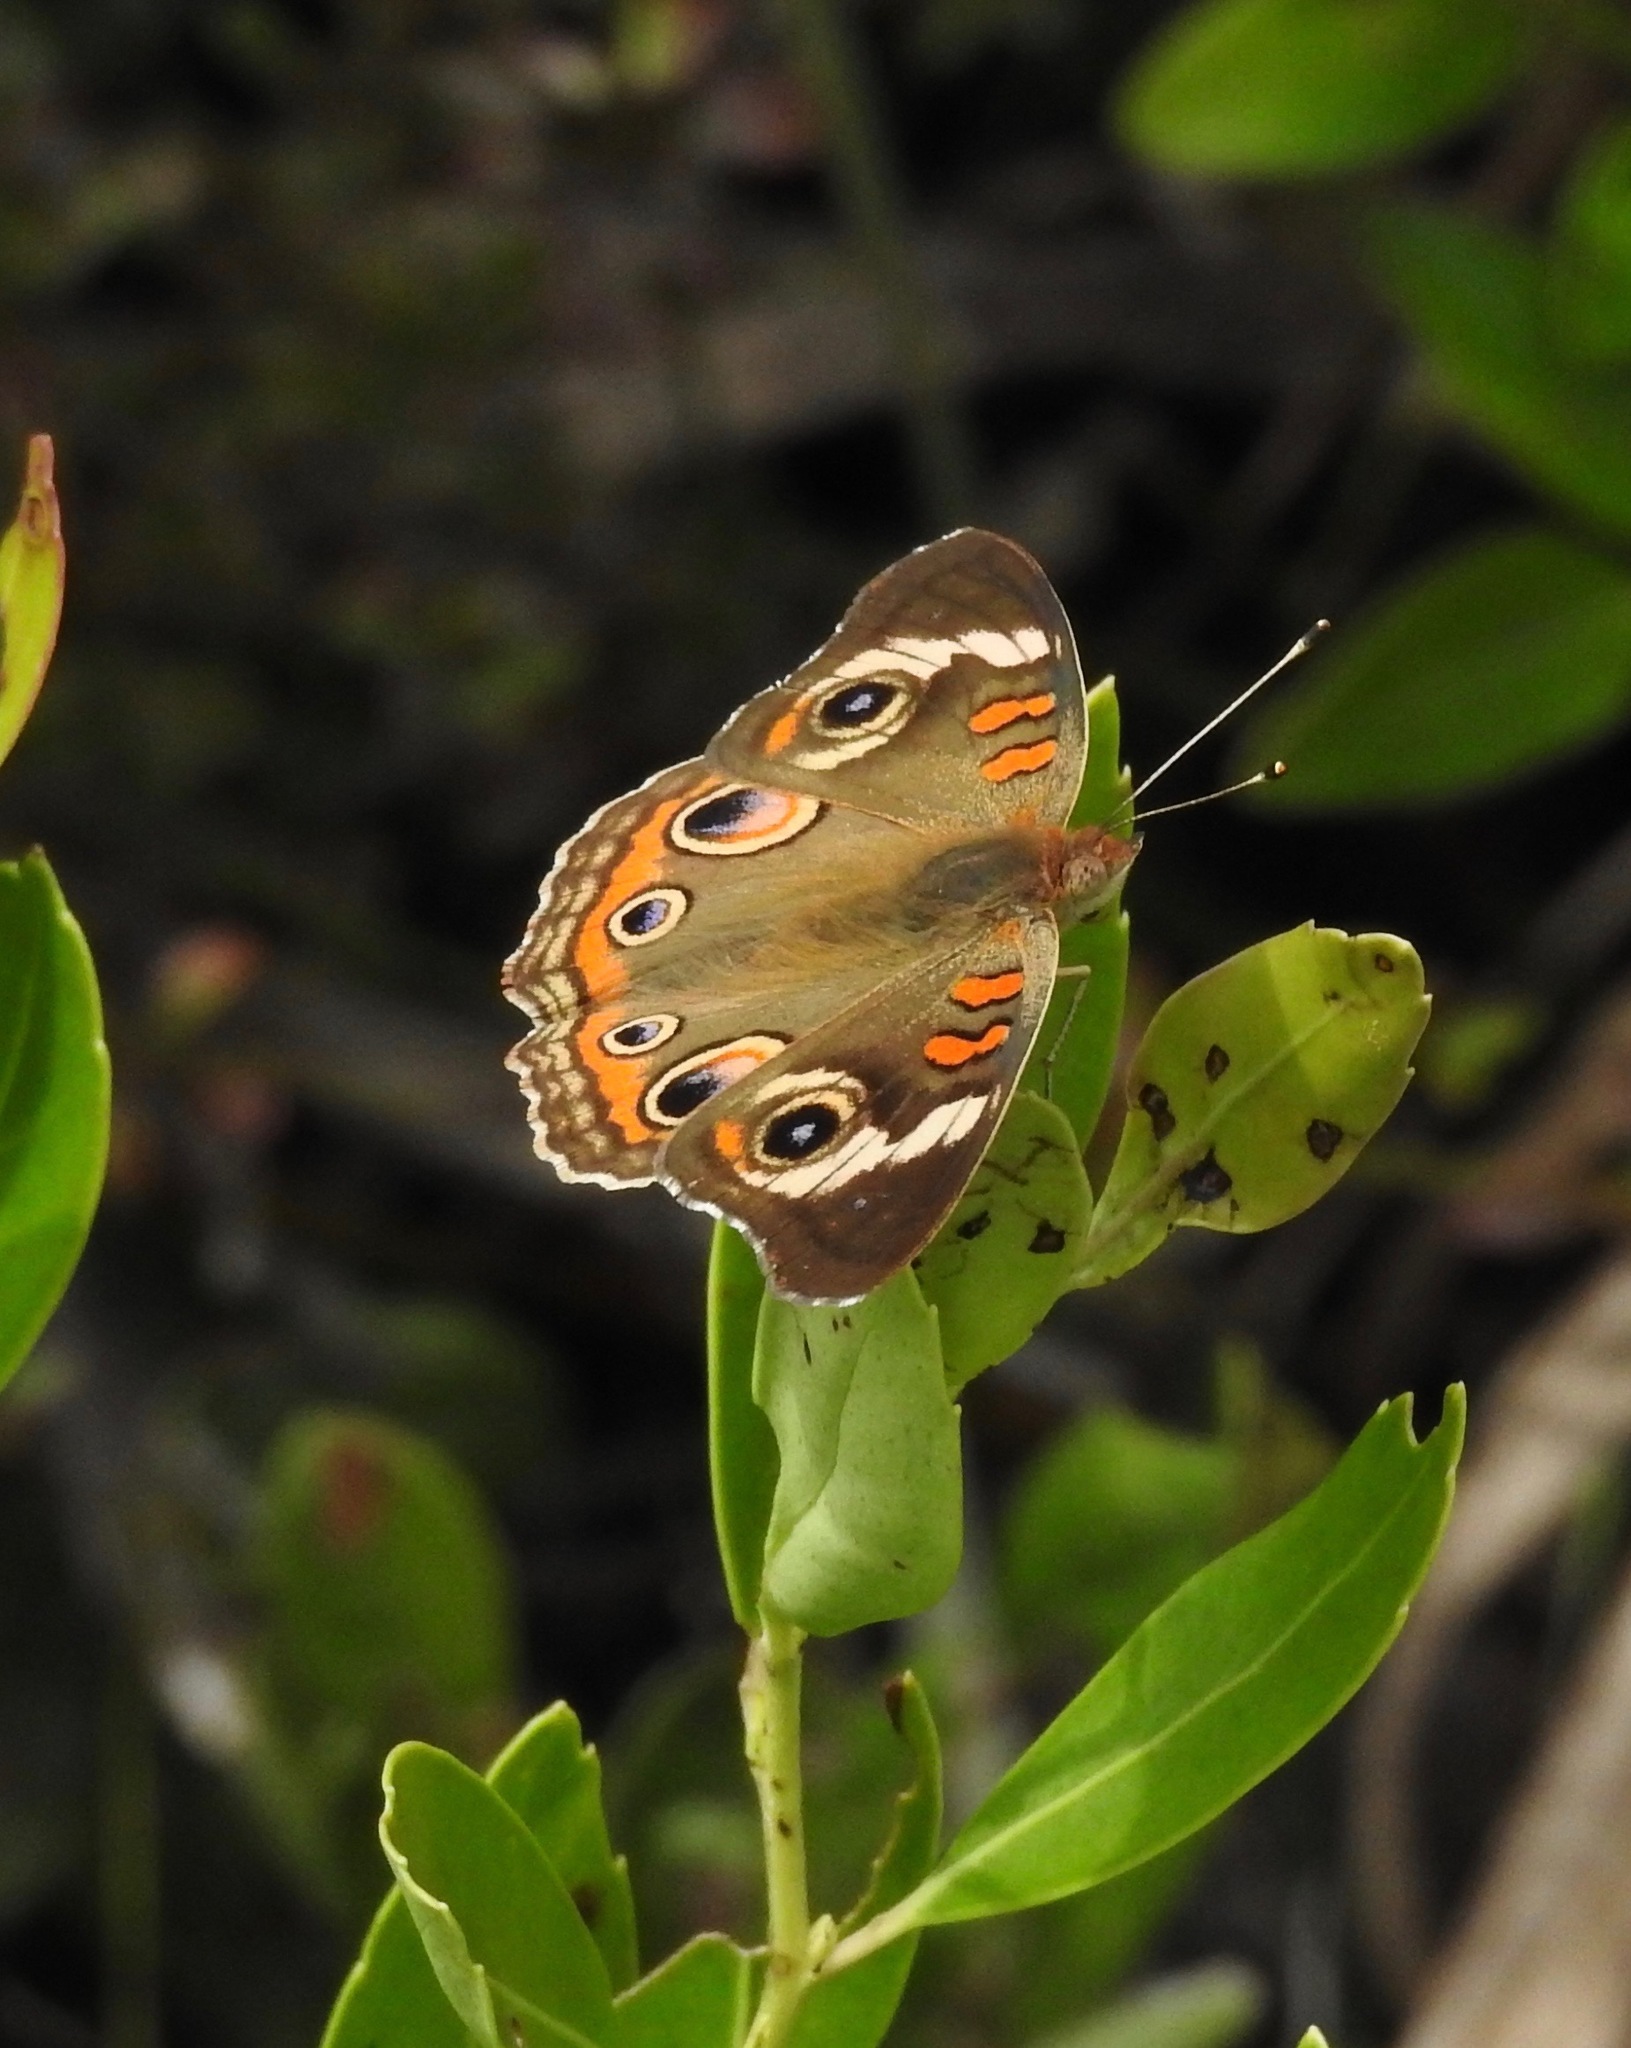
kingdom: Animalia
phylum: Arthropoda
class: Insecta
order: Lepidoptera
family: Nymphalidae
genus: Junonia
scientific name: Junonia coenia
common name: Common buckeye
